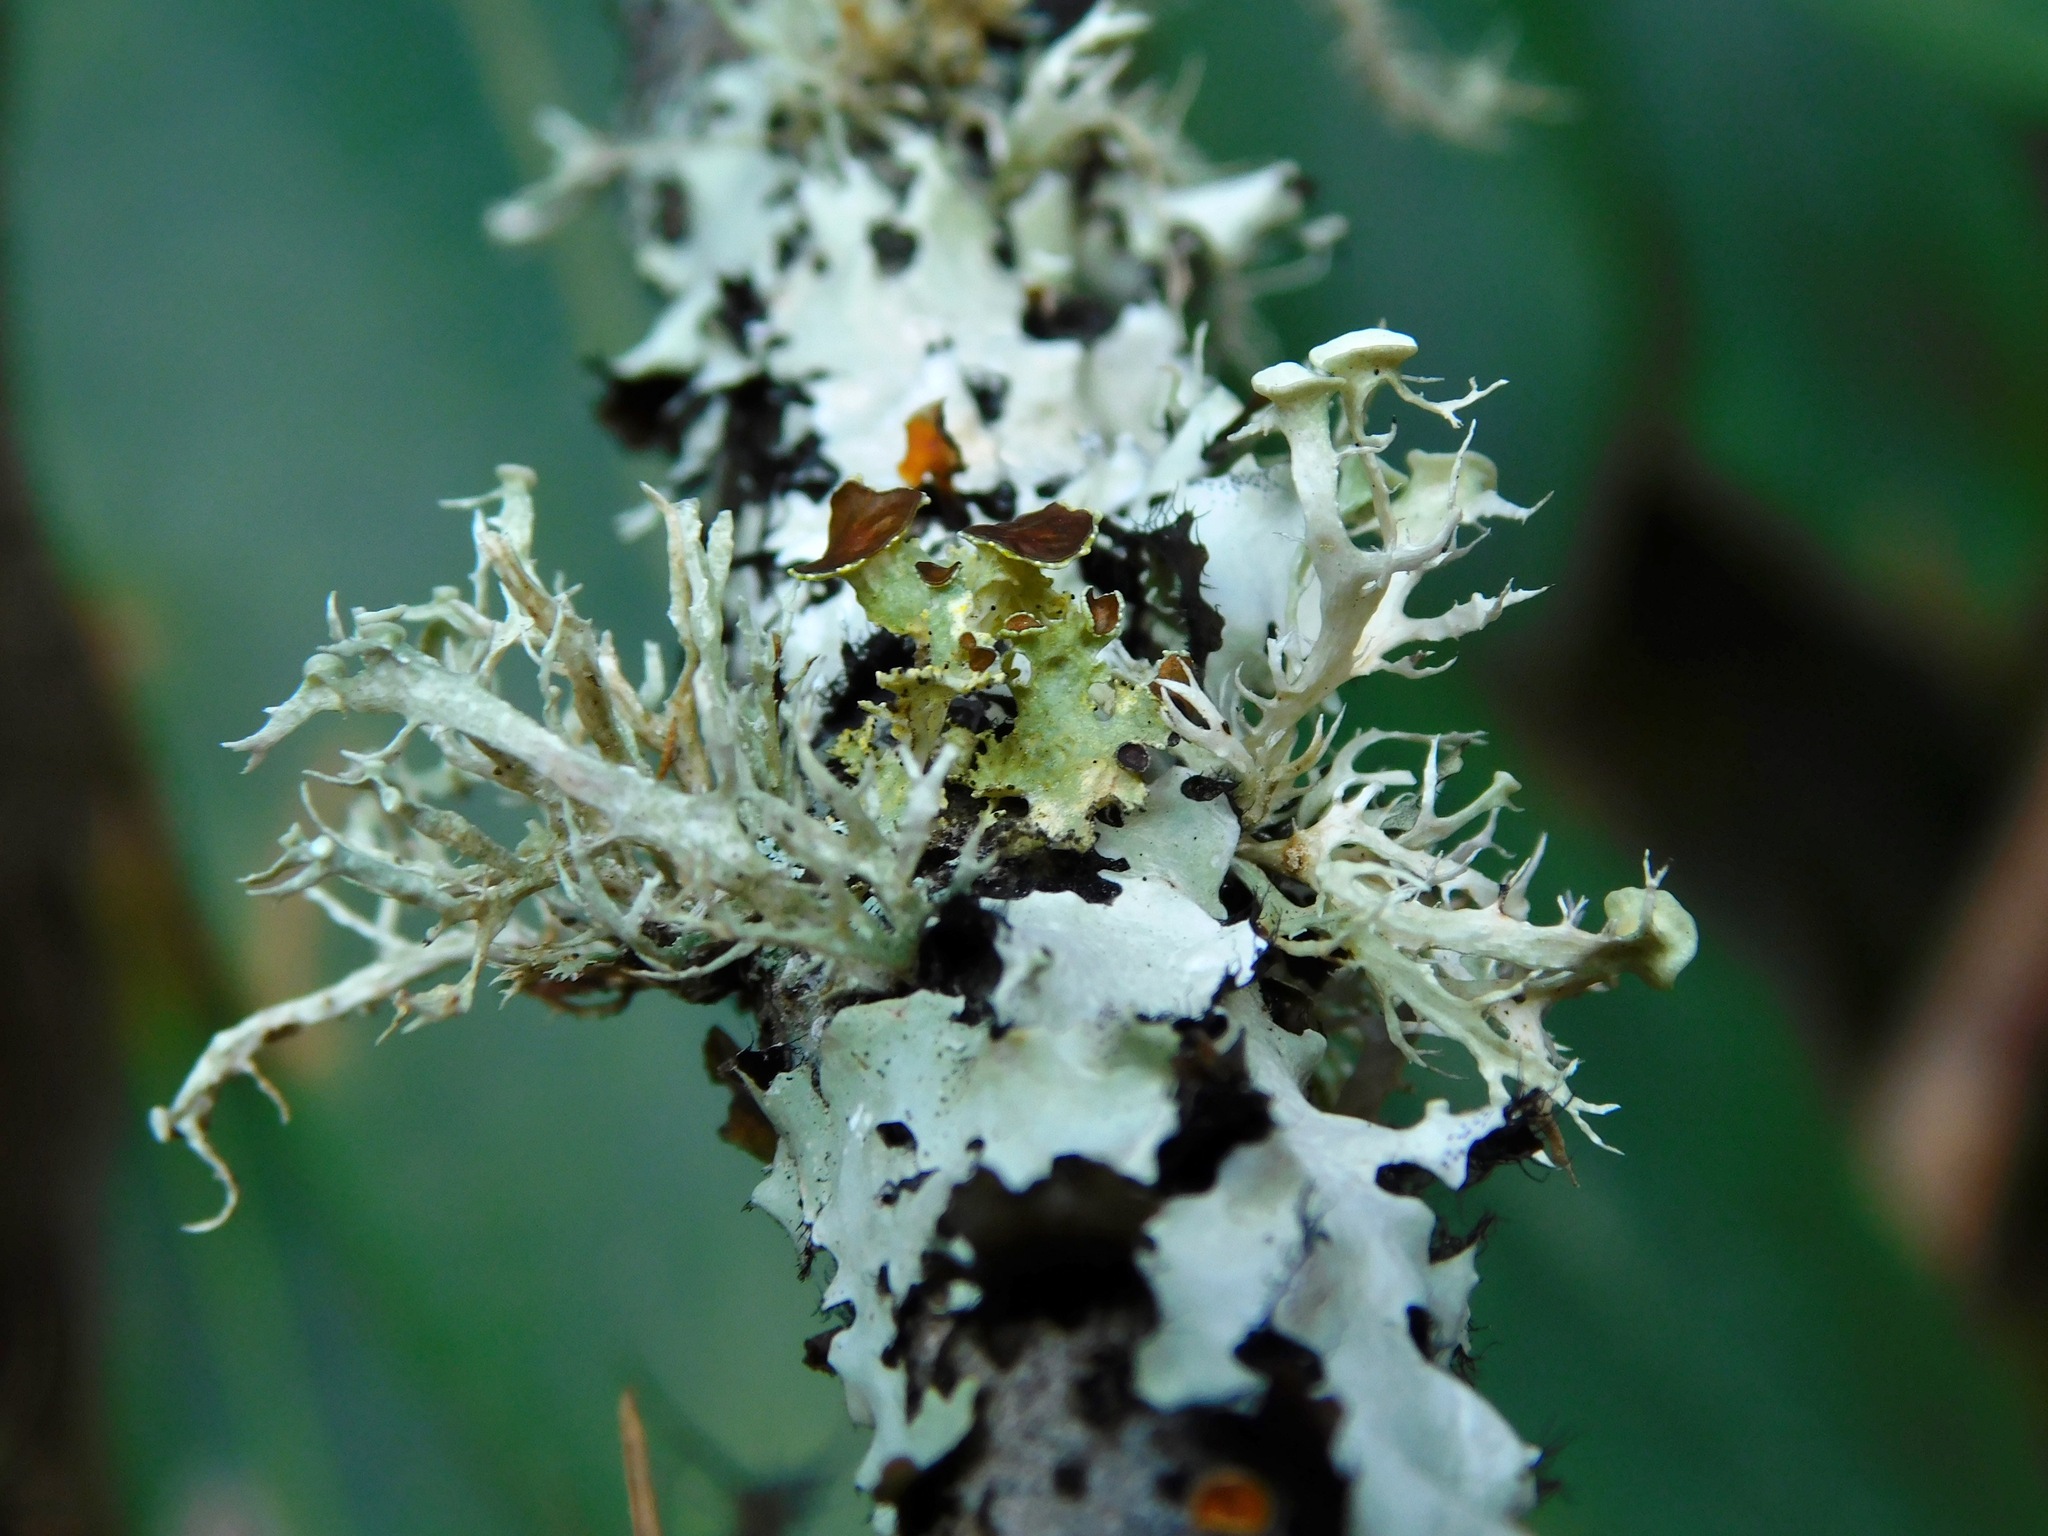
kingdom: Fungi
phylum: Ascomycota
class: Lecanoromycetes
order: Lecanorales
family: Parmeliaceae
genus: Vulpicida
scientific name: Vulpicida viridis
